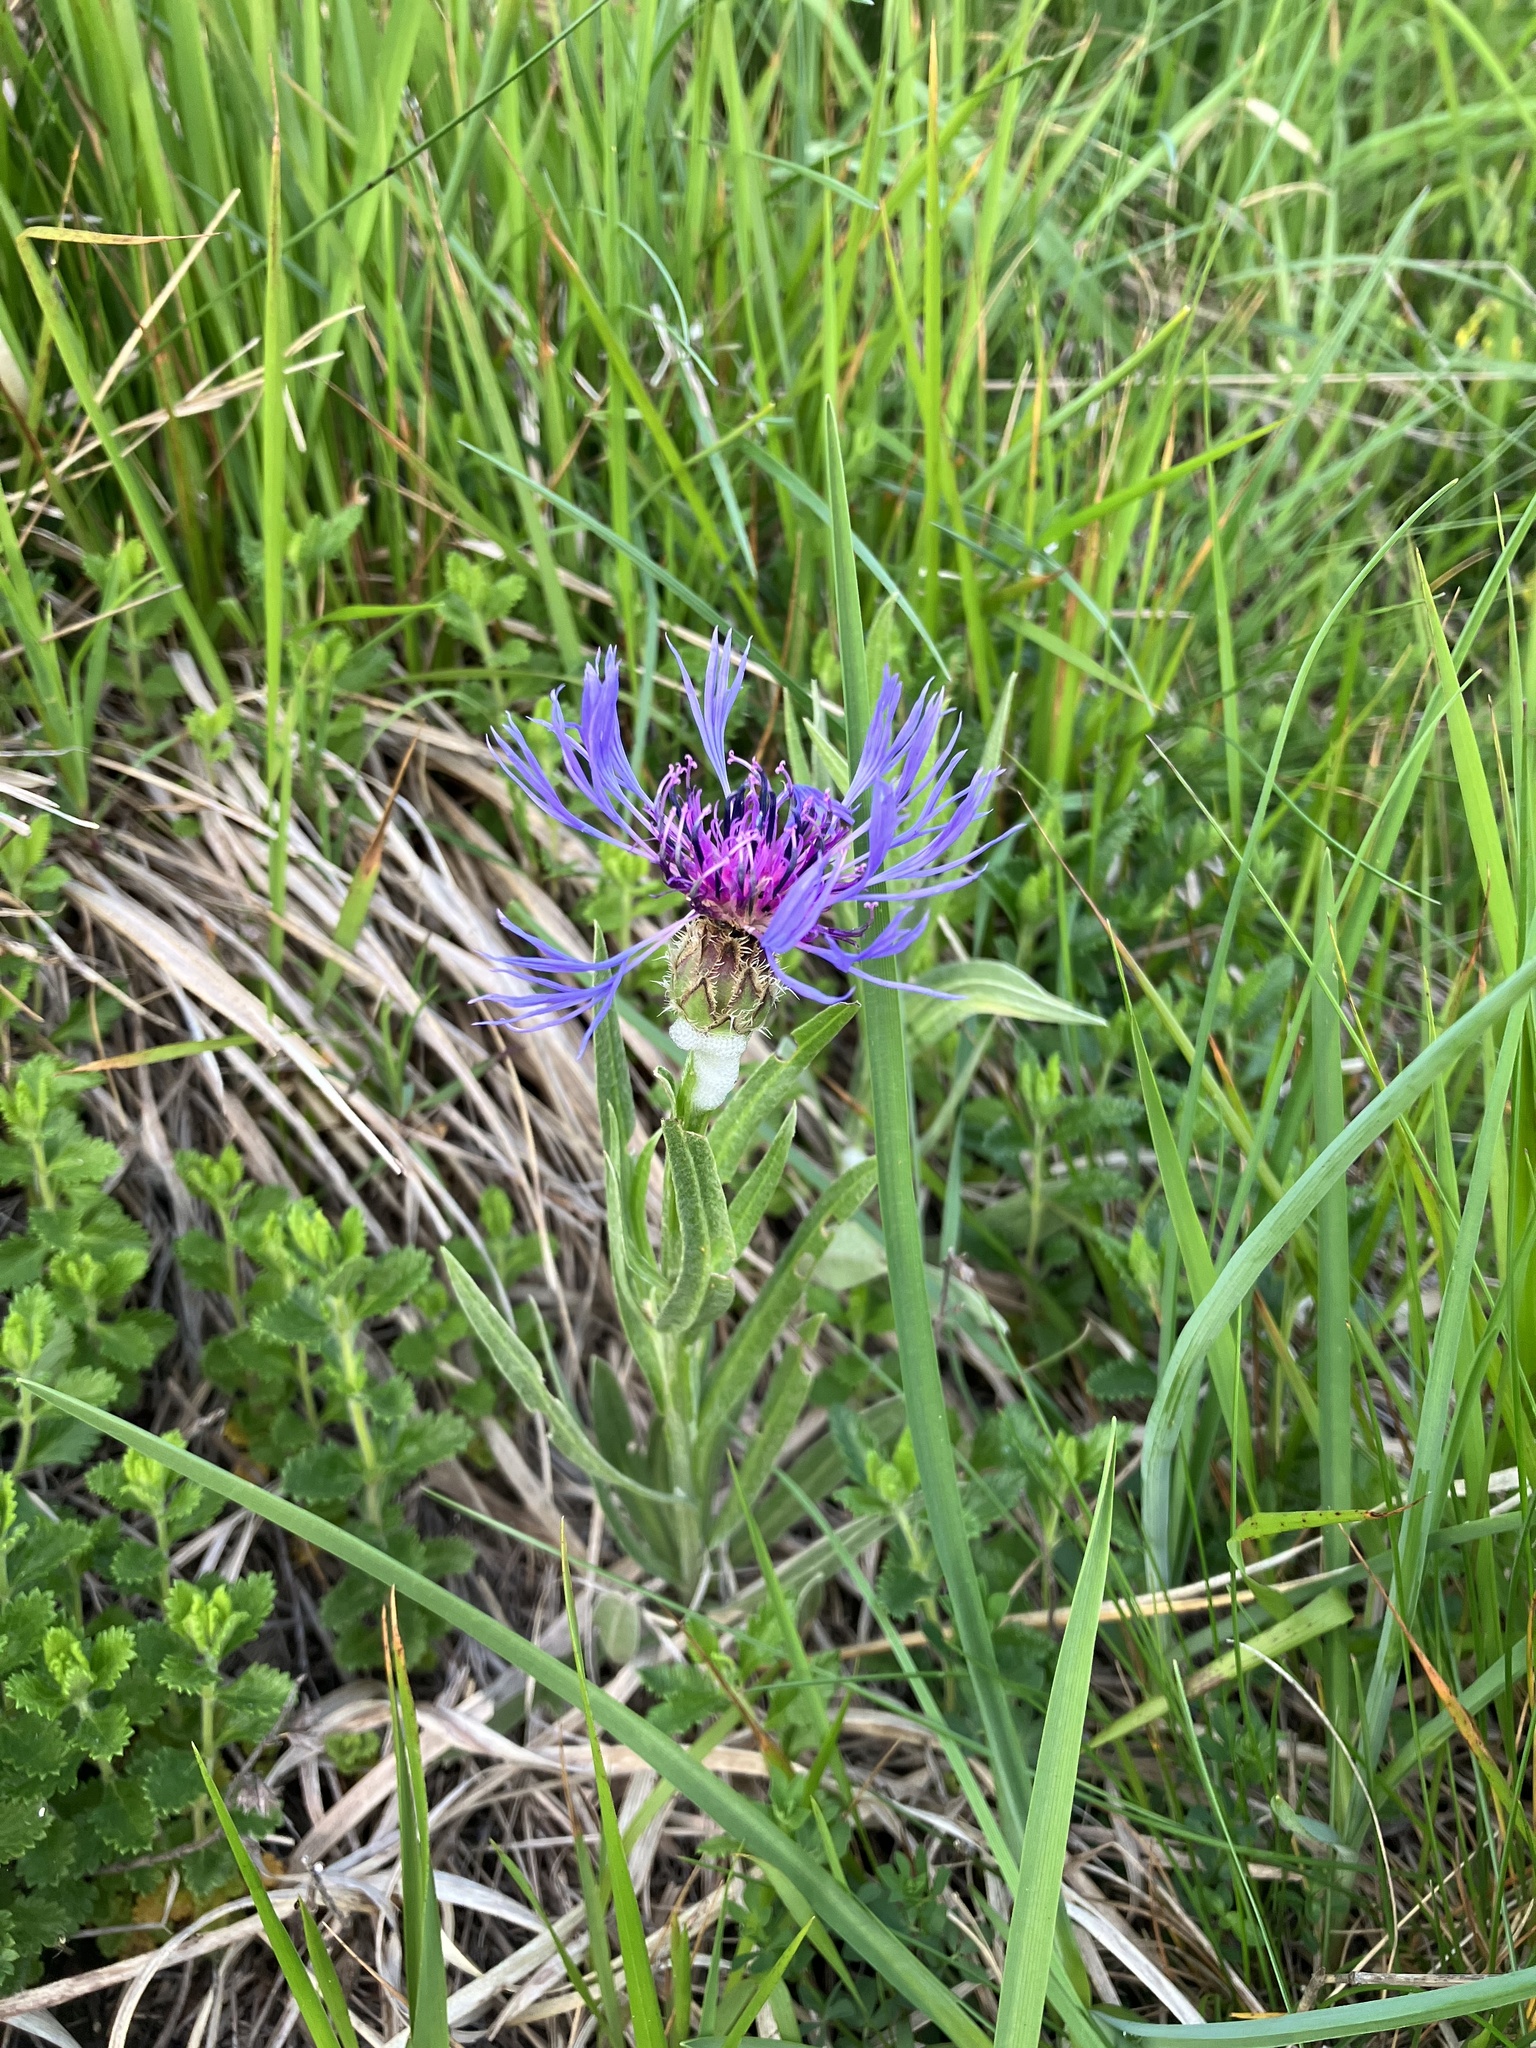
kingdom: Plantae
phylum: Tracheophyta
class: Magnoliopsida
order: Asterales
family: Asteraceae
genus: Centaurea
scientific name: Centaurea triumfettii
